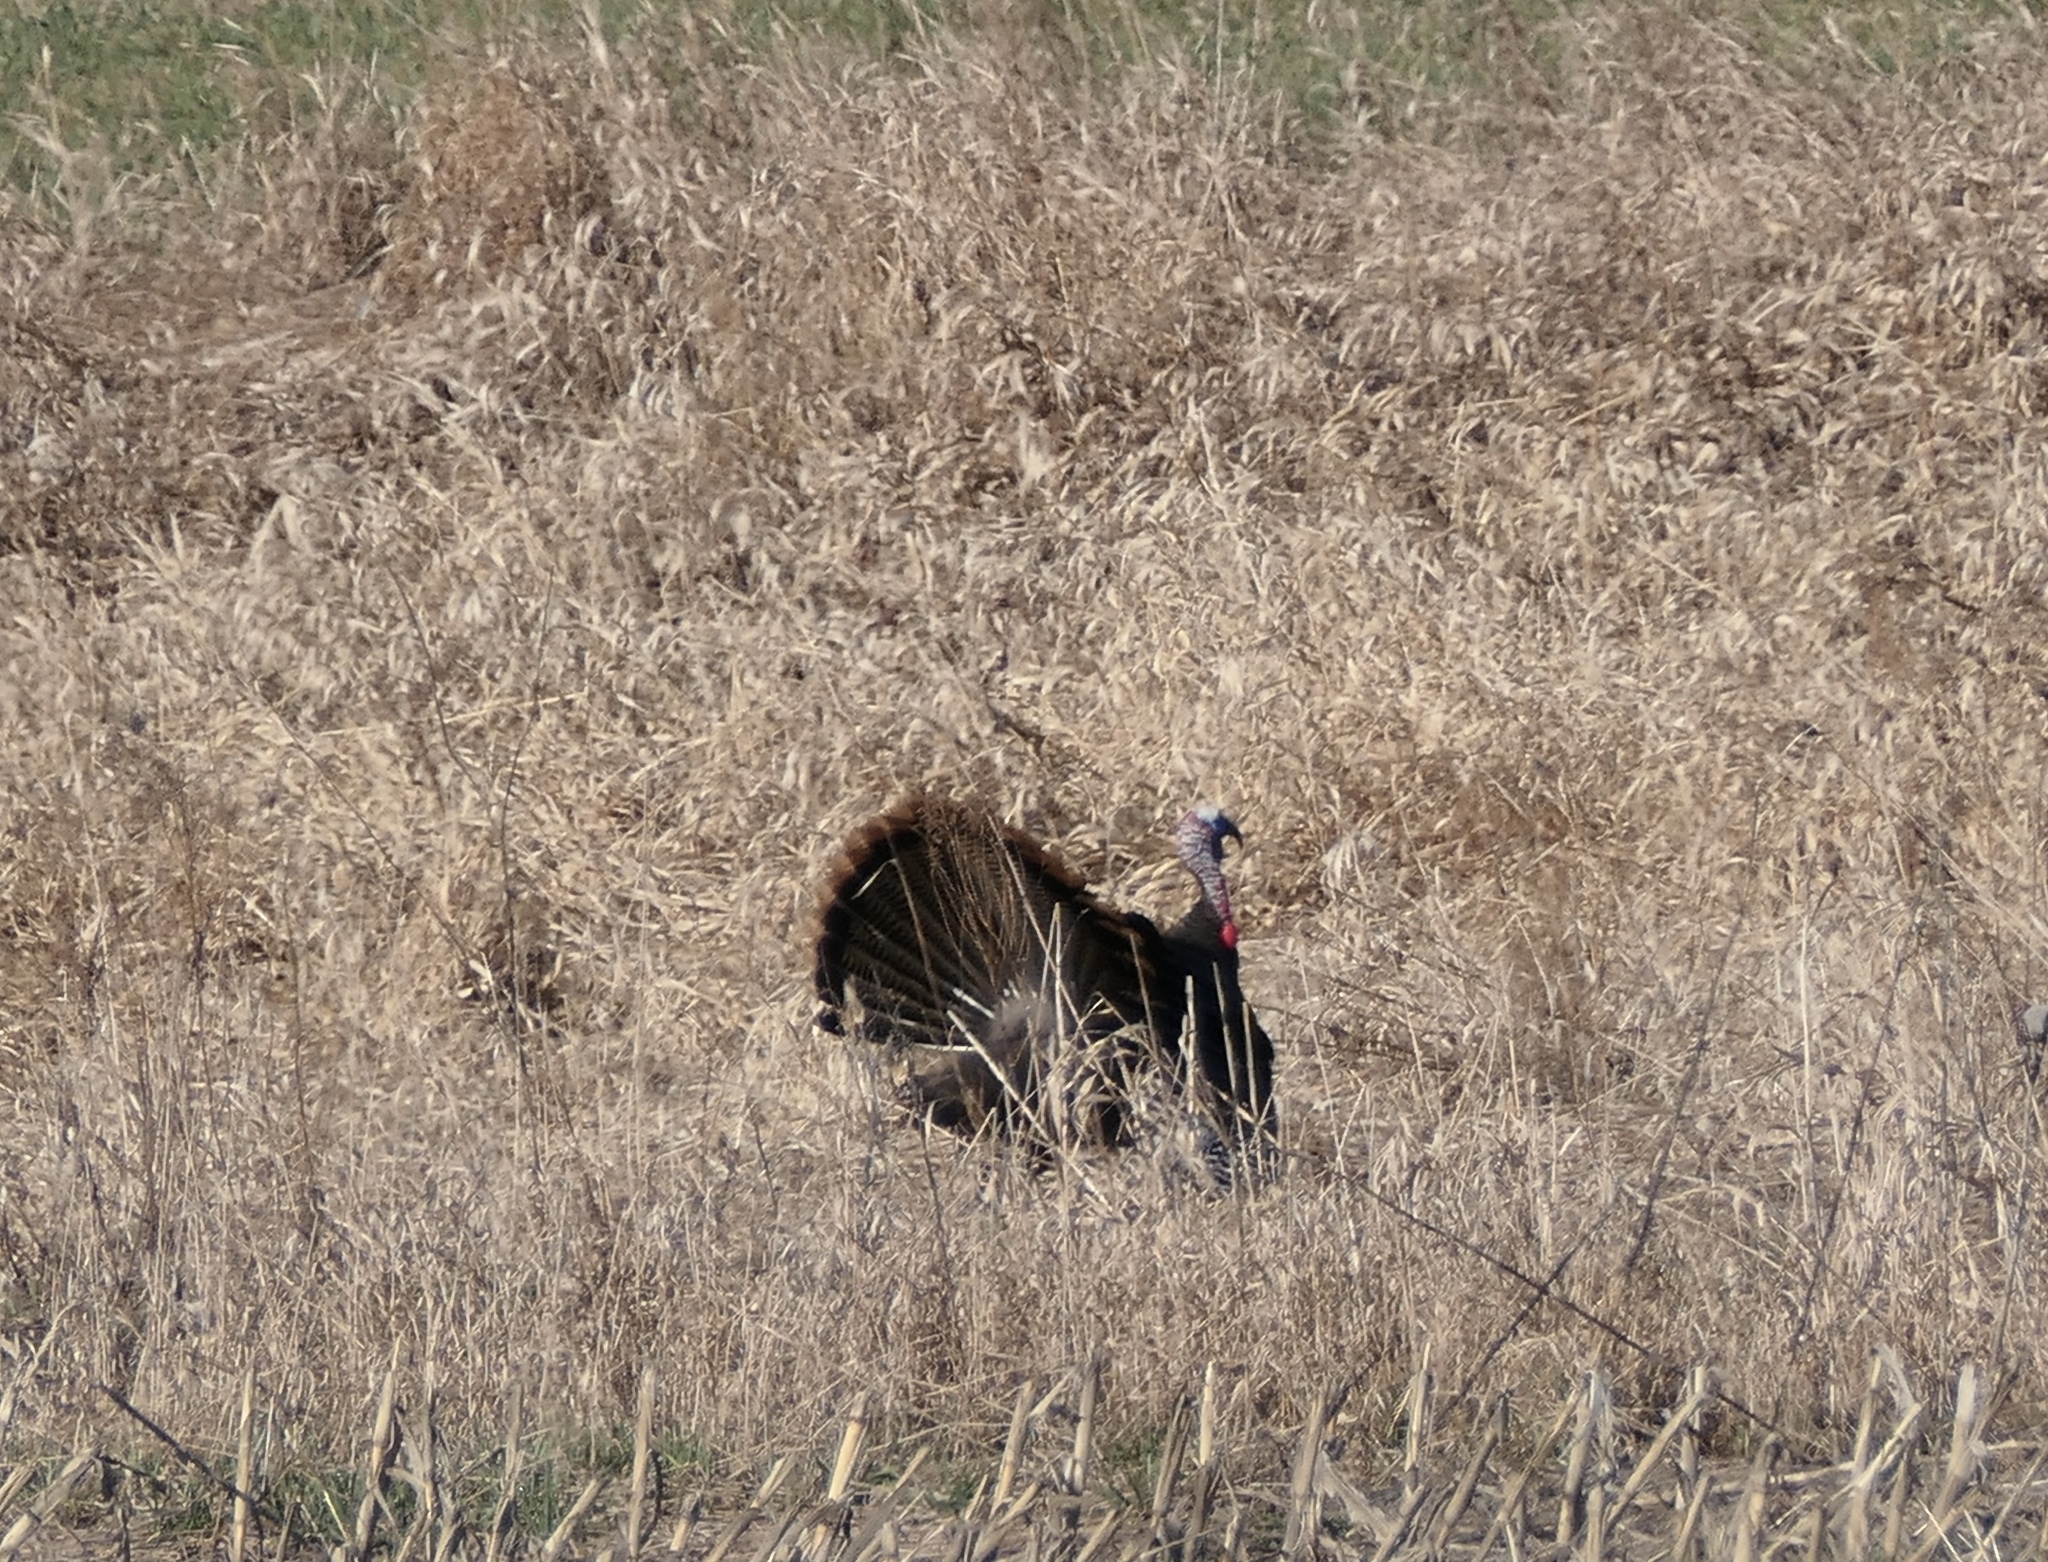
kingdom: Animalia
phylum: Chordata
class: Aves
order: Galliformes
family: Phasianidae
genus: Meleagris
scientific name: Meleagris gallopavo
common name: Wild turkey
